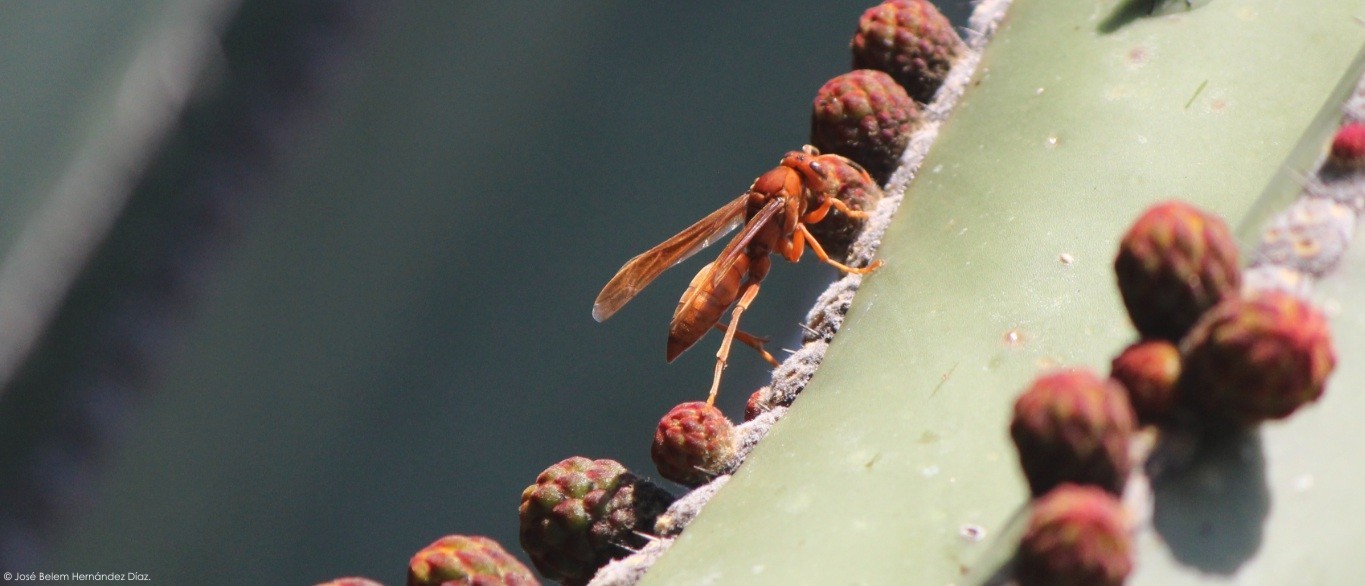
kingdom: Animalia
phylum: Arthropoda
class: Insecta
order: Hymenoptera
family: Eumenidae
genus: Polistes
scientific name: Polistes canadensis
